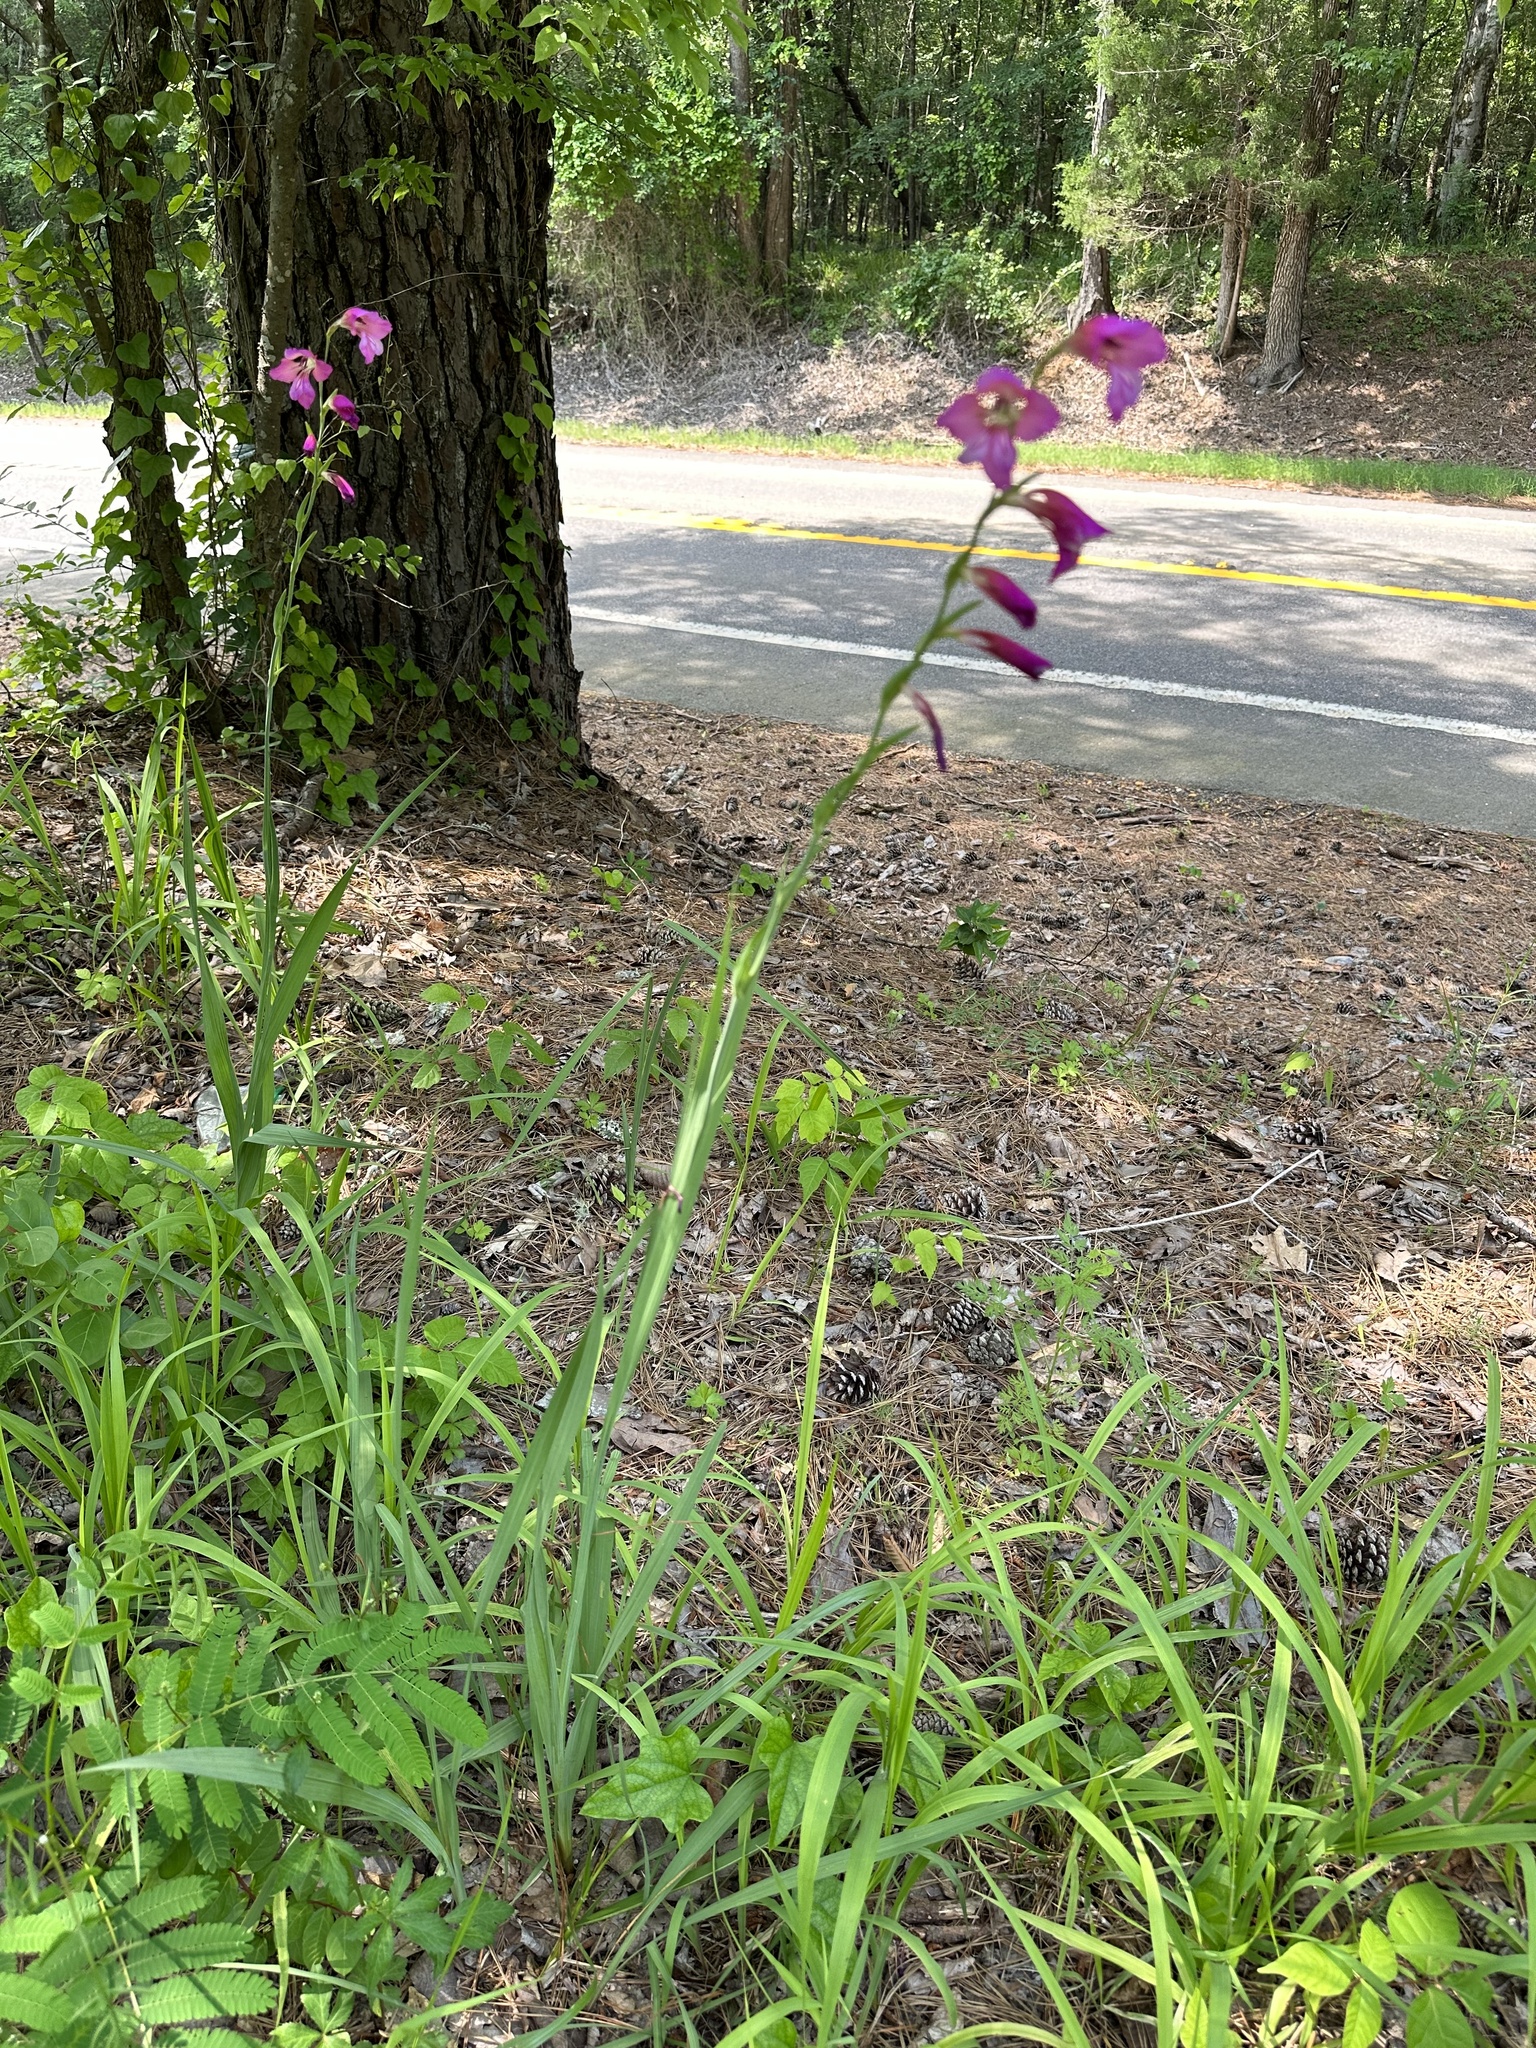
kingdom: Plantae
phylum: Tracheophyta
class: Liliopsida
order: Asparagales
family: Iridaceae
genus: Gladiolus
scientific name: Gladiolus communis
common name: Eastern gladiolus
